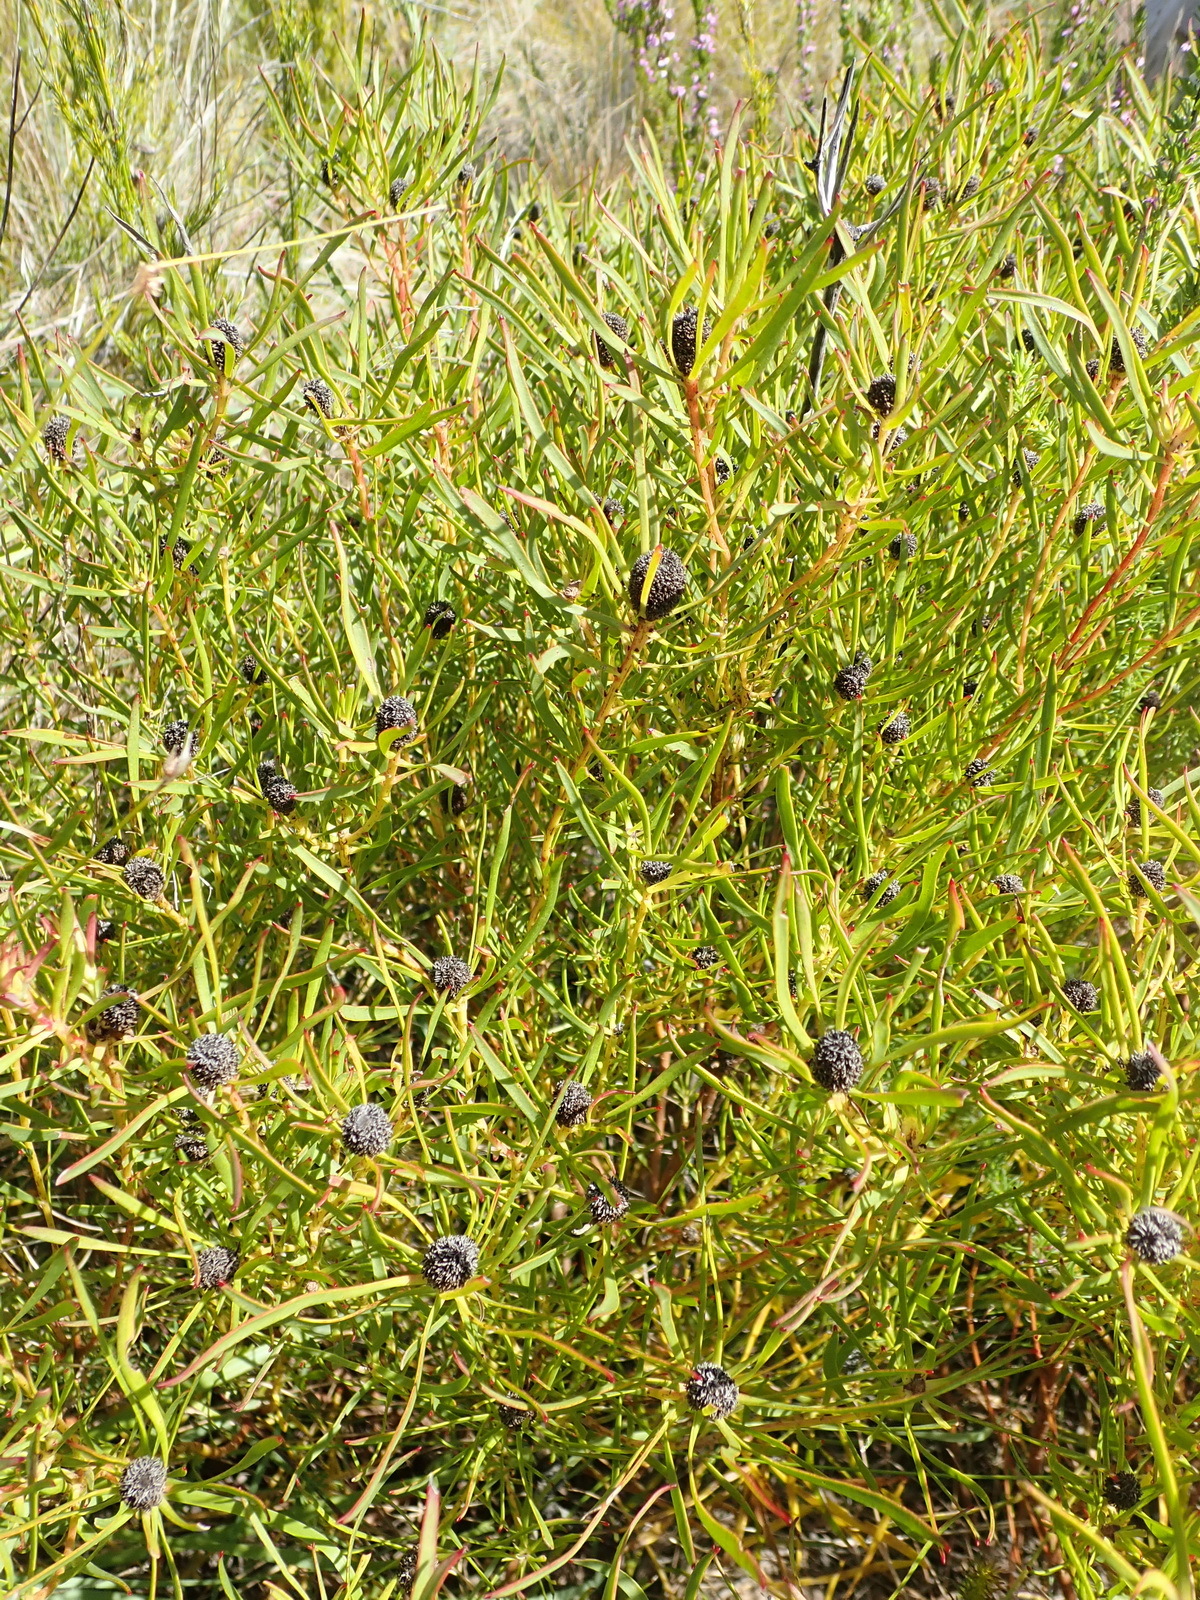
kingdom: Plantae
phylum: Tracheophyta
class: Magnoliopsida
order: Proteales
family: Proteaceae
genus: Leucadendron
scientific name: Leucadendron salignum
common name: Common sunshine conebush
